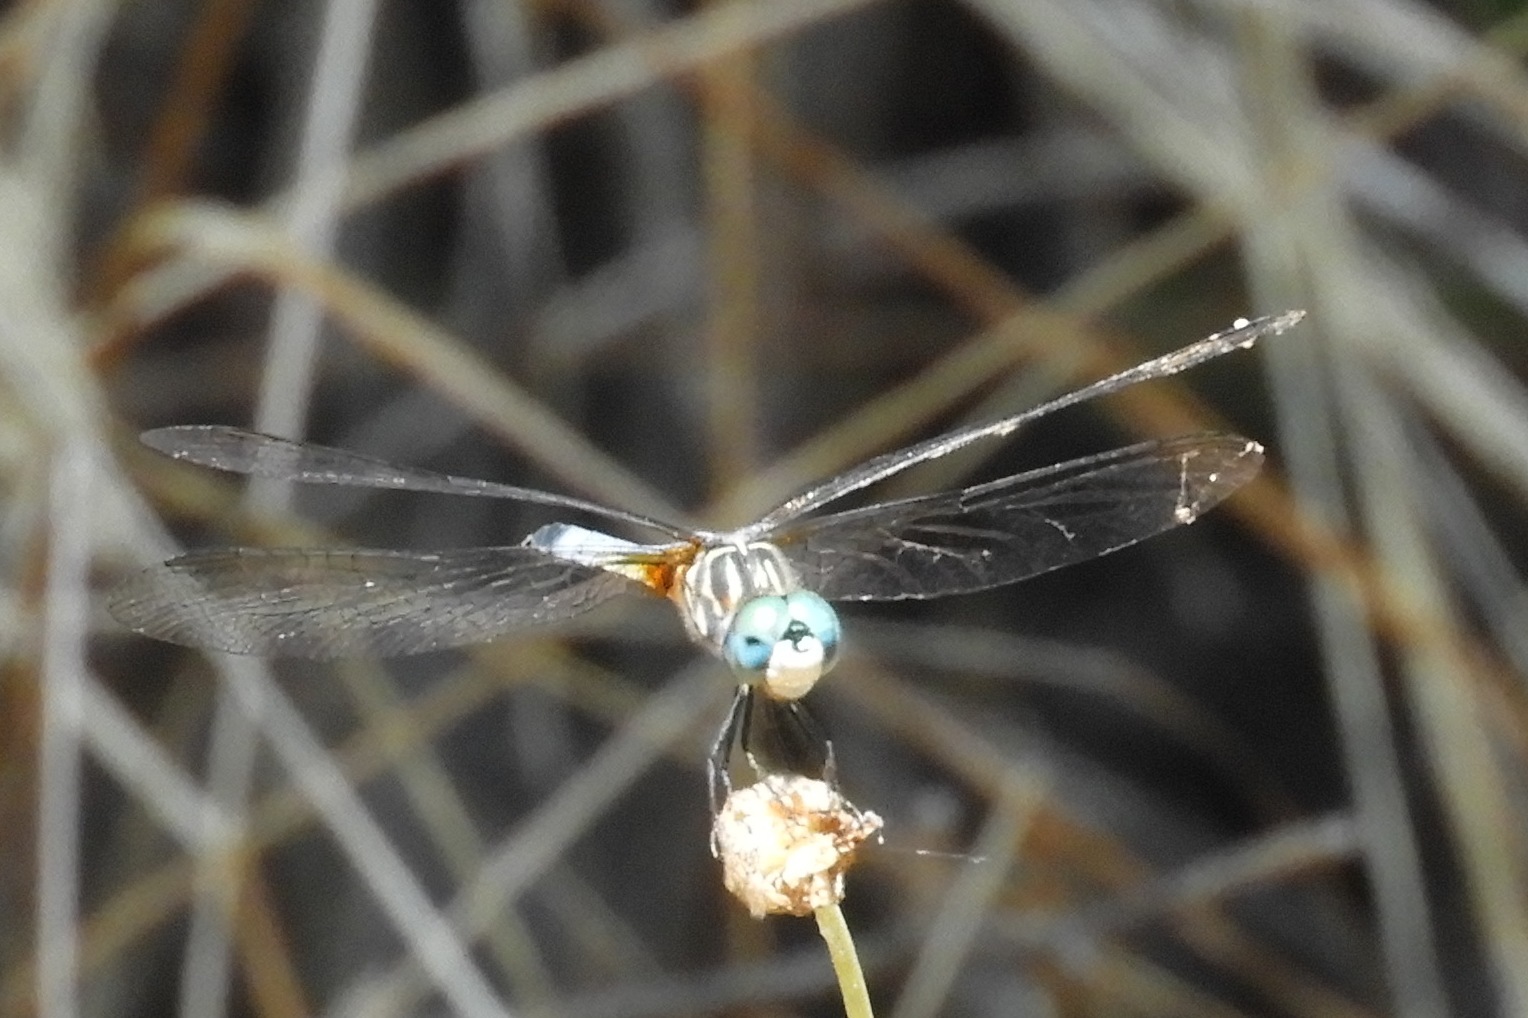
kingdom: Animalia
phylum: Arthropoda
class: Insecta
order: Odonata
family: Libellulidae
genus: Pachydiplax
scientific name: Pachydiplax longipennis
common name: Blue dasher
